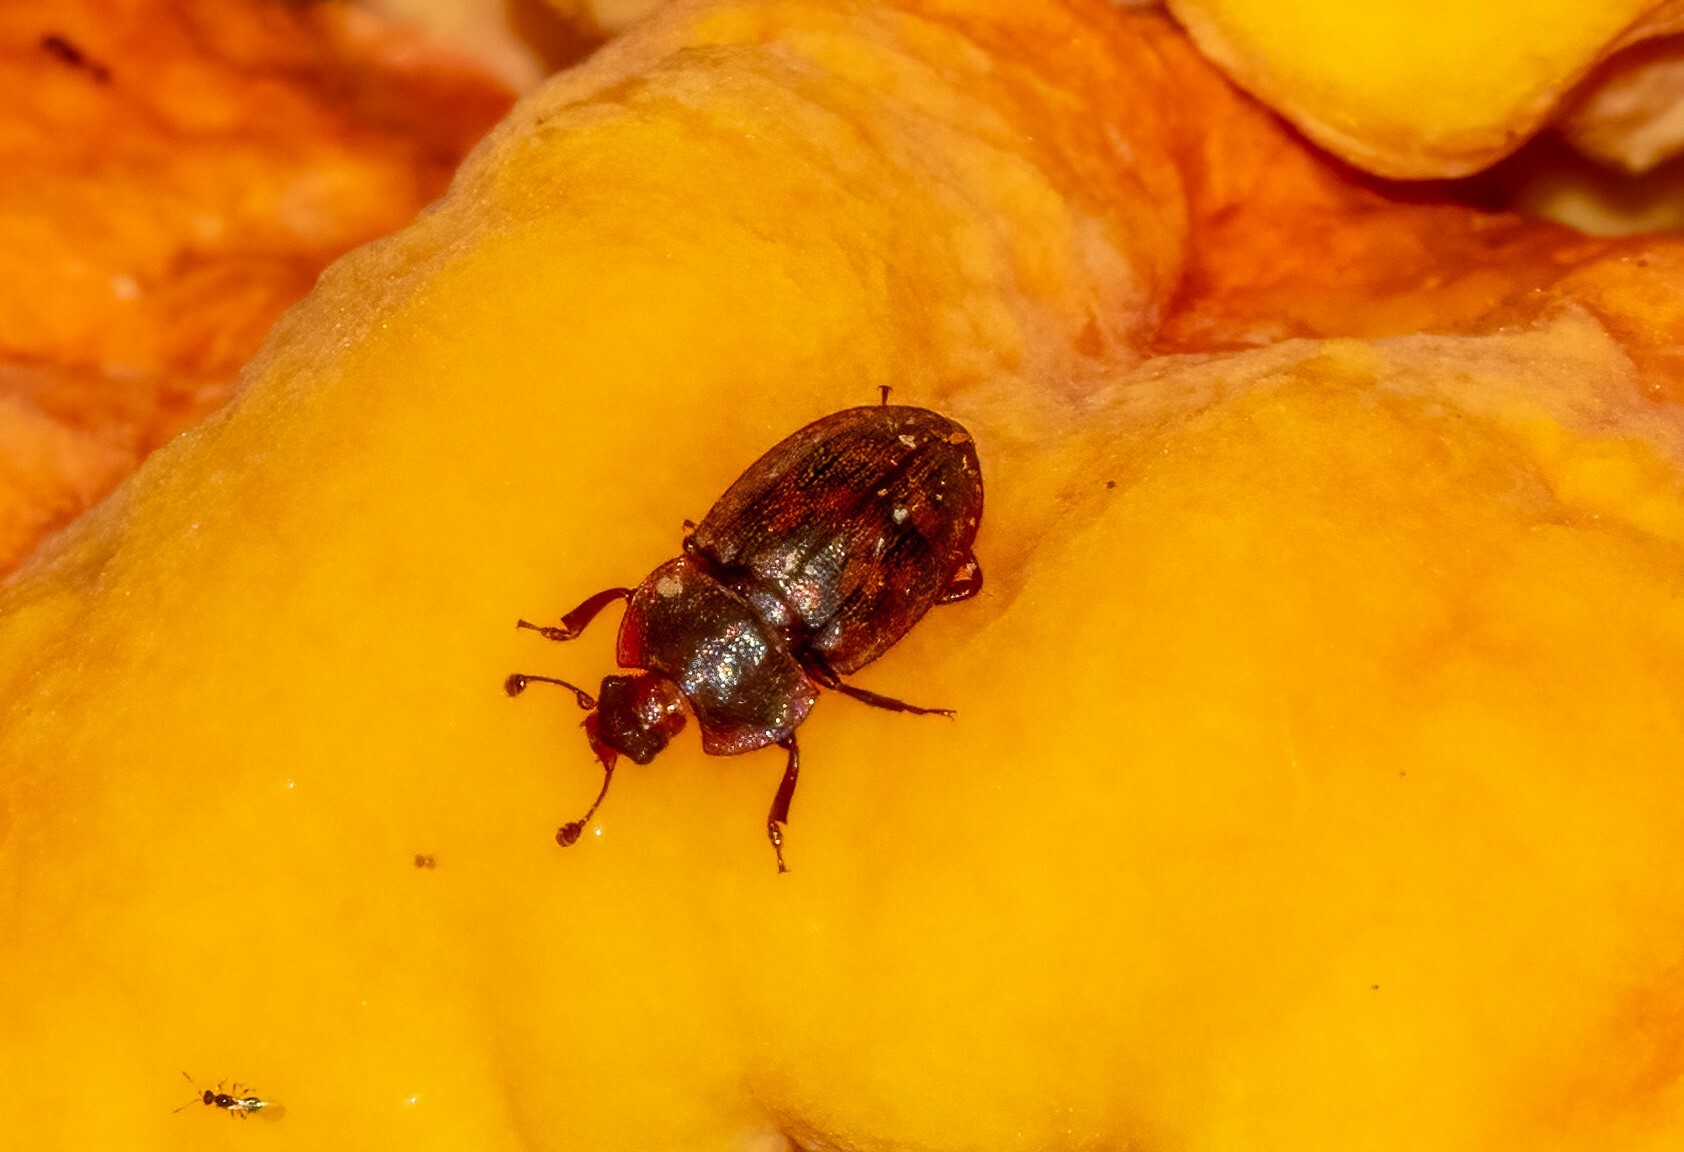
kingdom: Animalia
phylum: Arthropoda
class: Insecta
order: Coleoptera
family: Nitidulidae
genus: Phenolia
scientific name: Phenolia grossa
